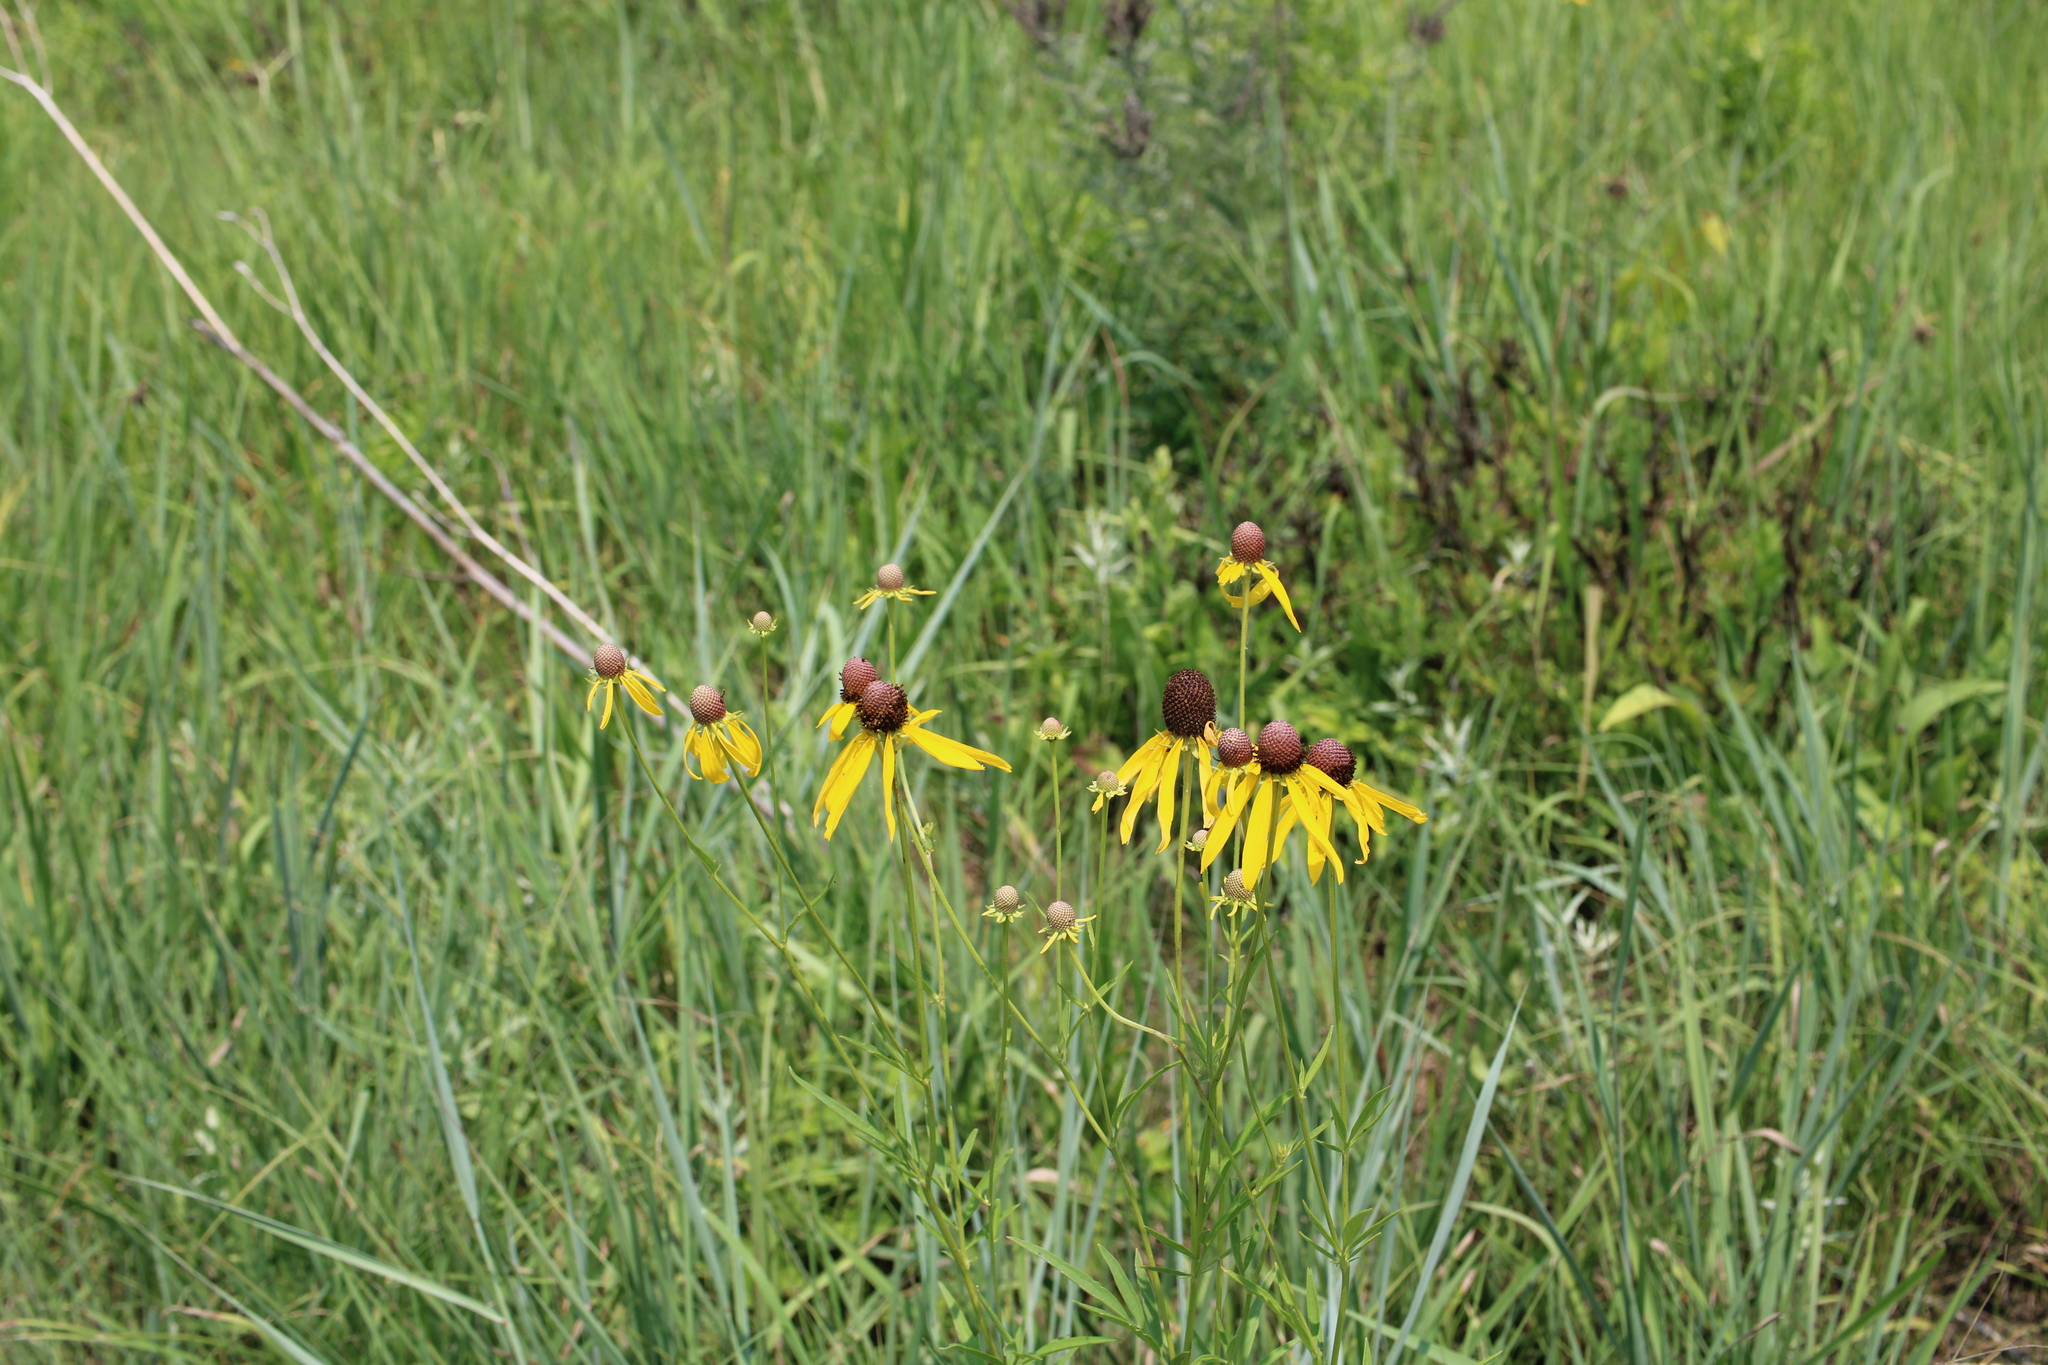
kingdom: Plantae
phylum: Tracheophyta
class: Magnoliopsida
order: Asterales
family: Asteraceae
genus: Ratibida
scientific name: Ratibida pinnata
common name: Drooping prairie-coneflower
